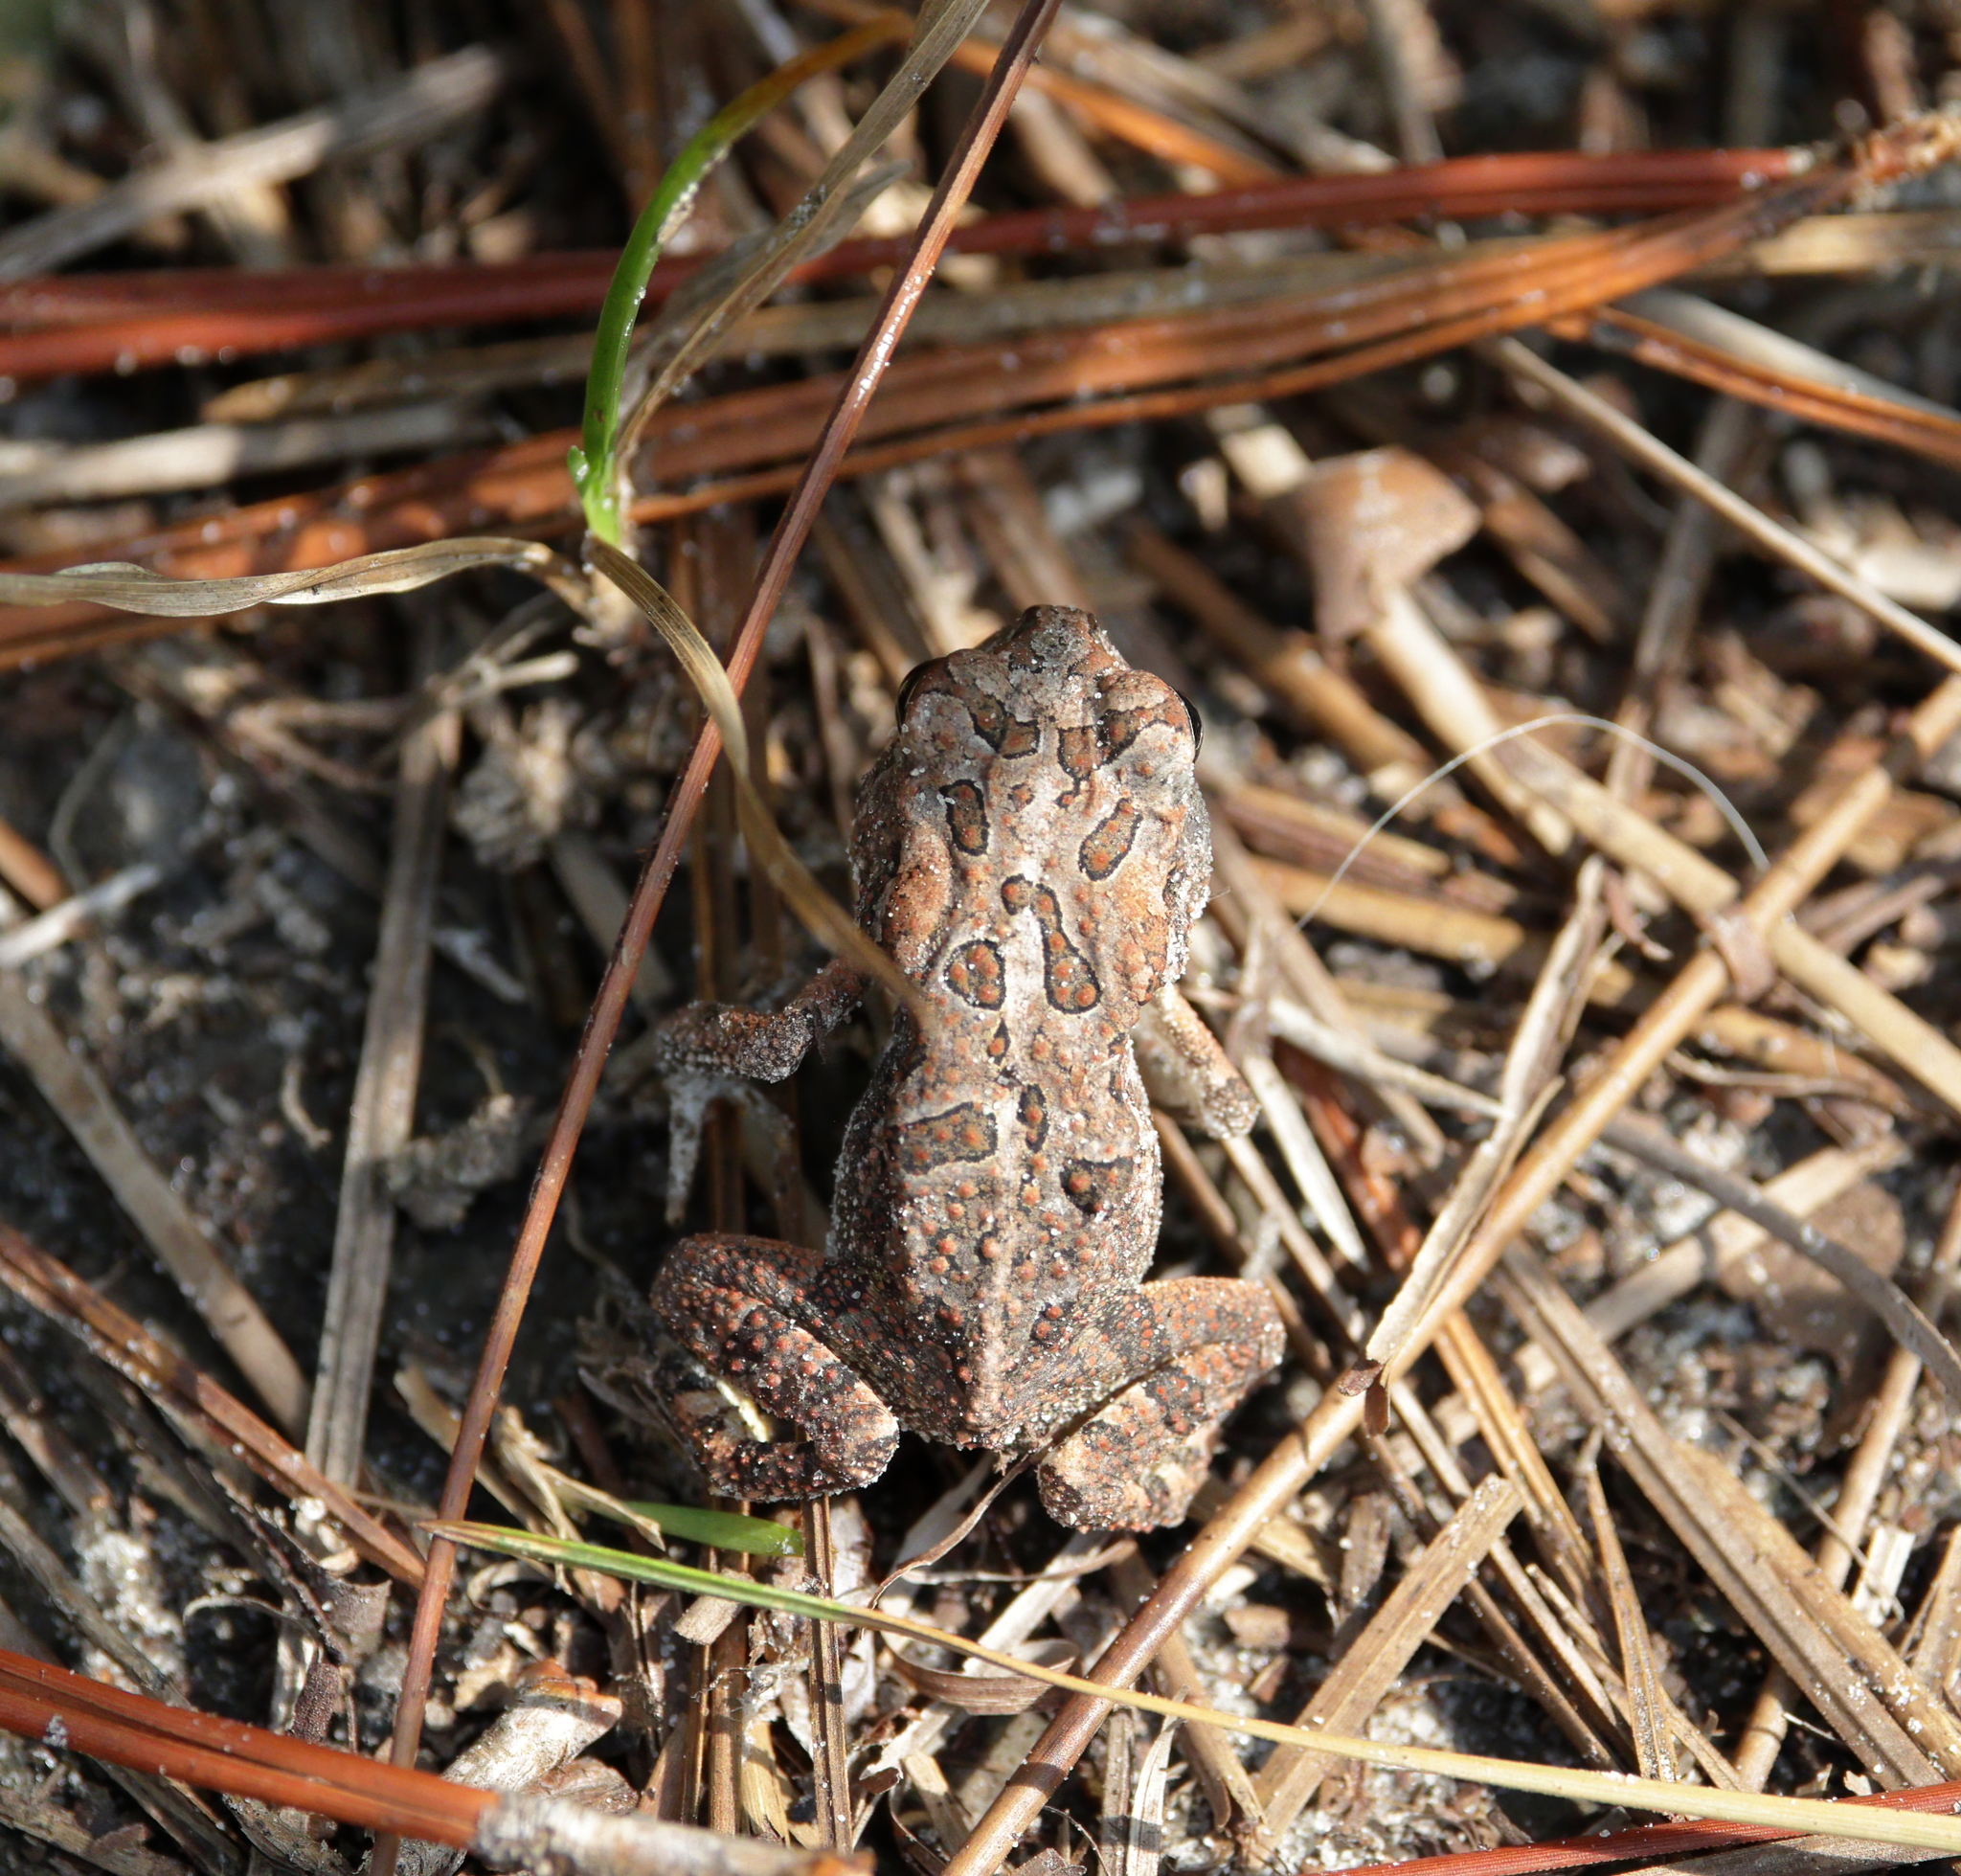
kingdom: Animalia
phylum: Chordata
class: Amphibia
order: Anura
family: Bufonidae
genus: Anaxyrus
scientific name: Anaxyrus terrestris
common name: Southern toad
